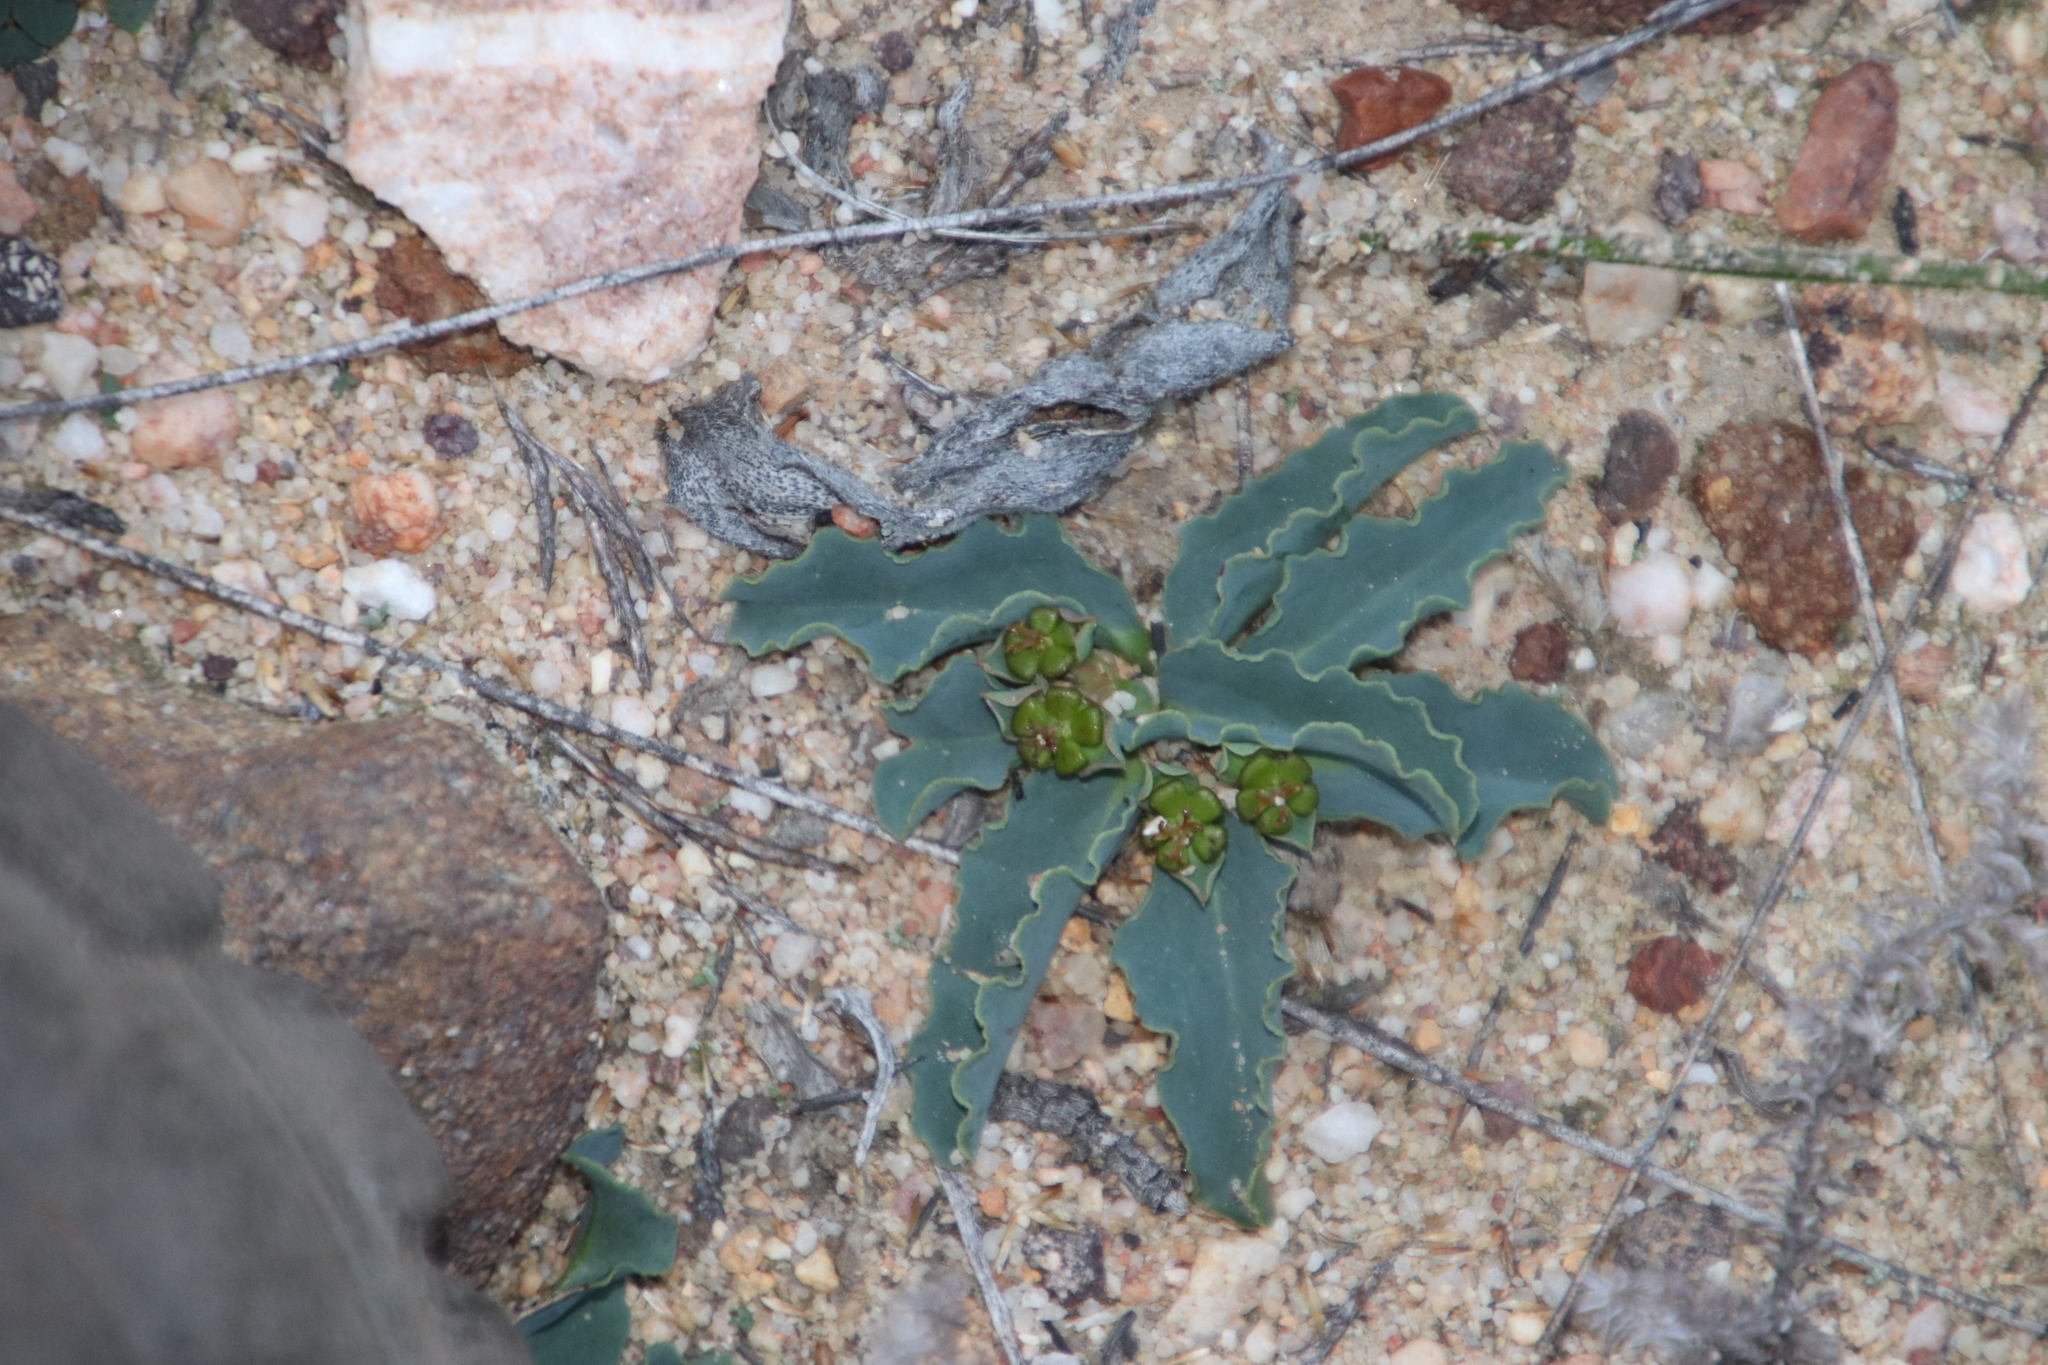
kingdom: Plantae
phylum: Tracheophyta
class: Magnoliopsida
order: Malpighiales
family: Euphorbiaceae
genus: Euphorbia
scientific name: Euphorbia tuberosa
